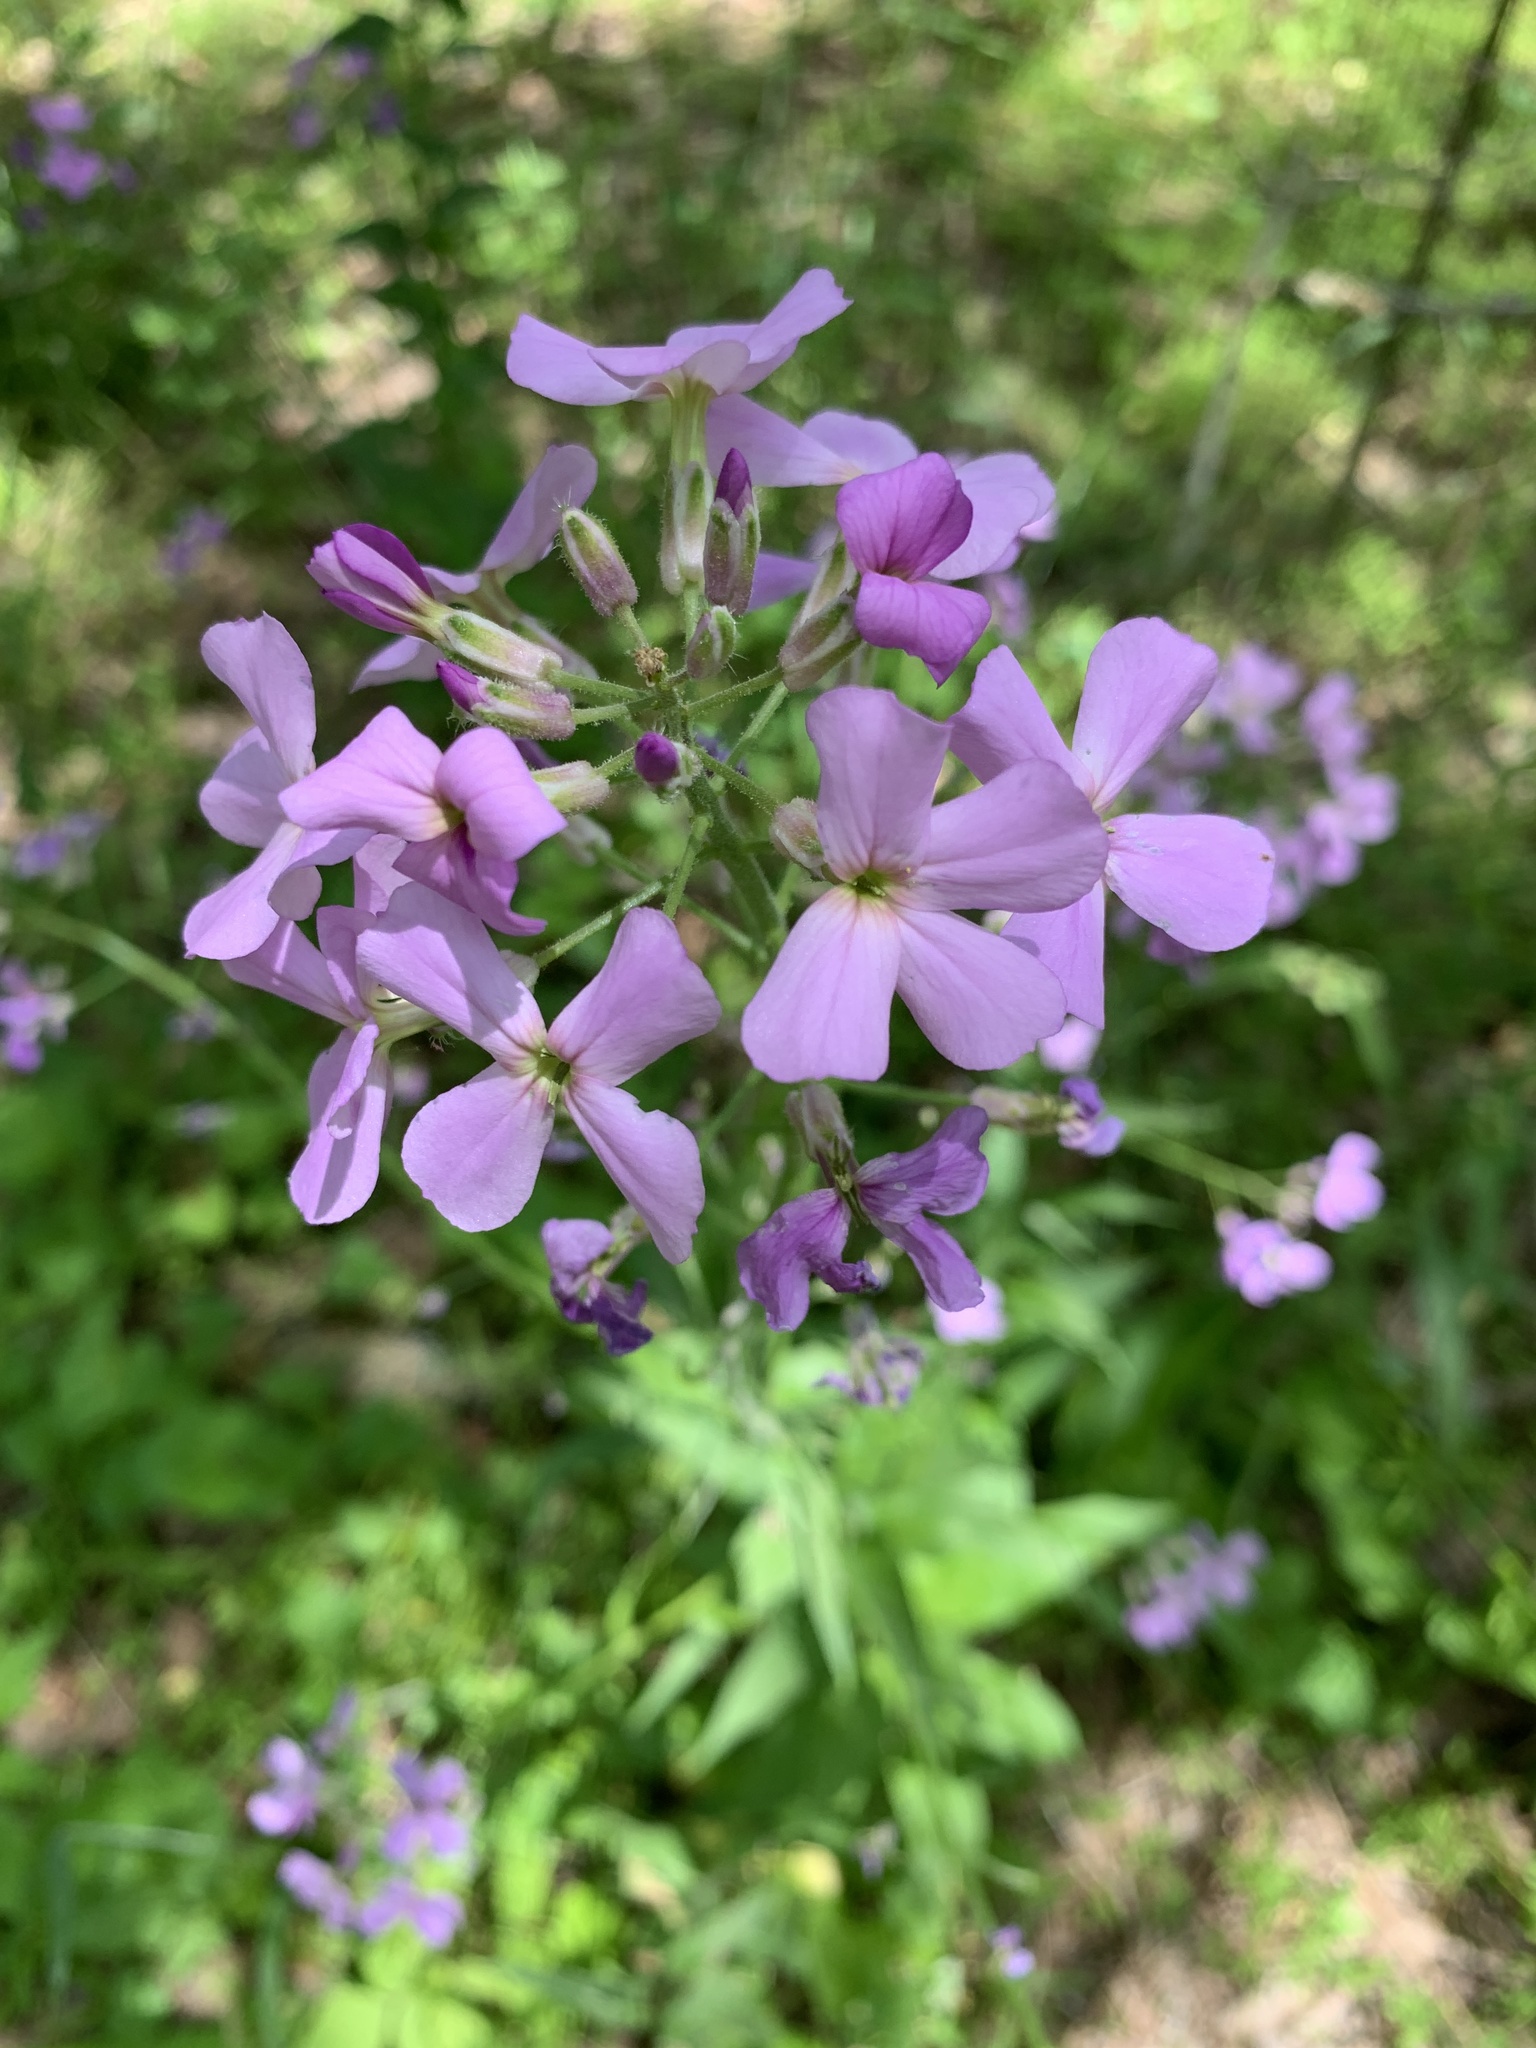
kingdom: Plantae
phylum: Tracheophyta
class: Magnoliopsida
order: Brassicales
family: Brassicaceae
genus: Hesperis
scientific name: Hesperis matronalis
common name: Dame's-violet
